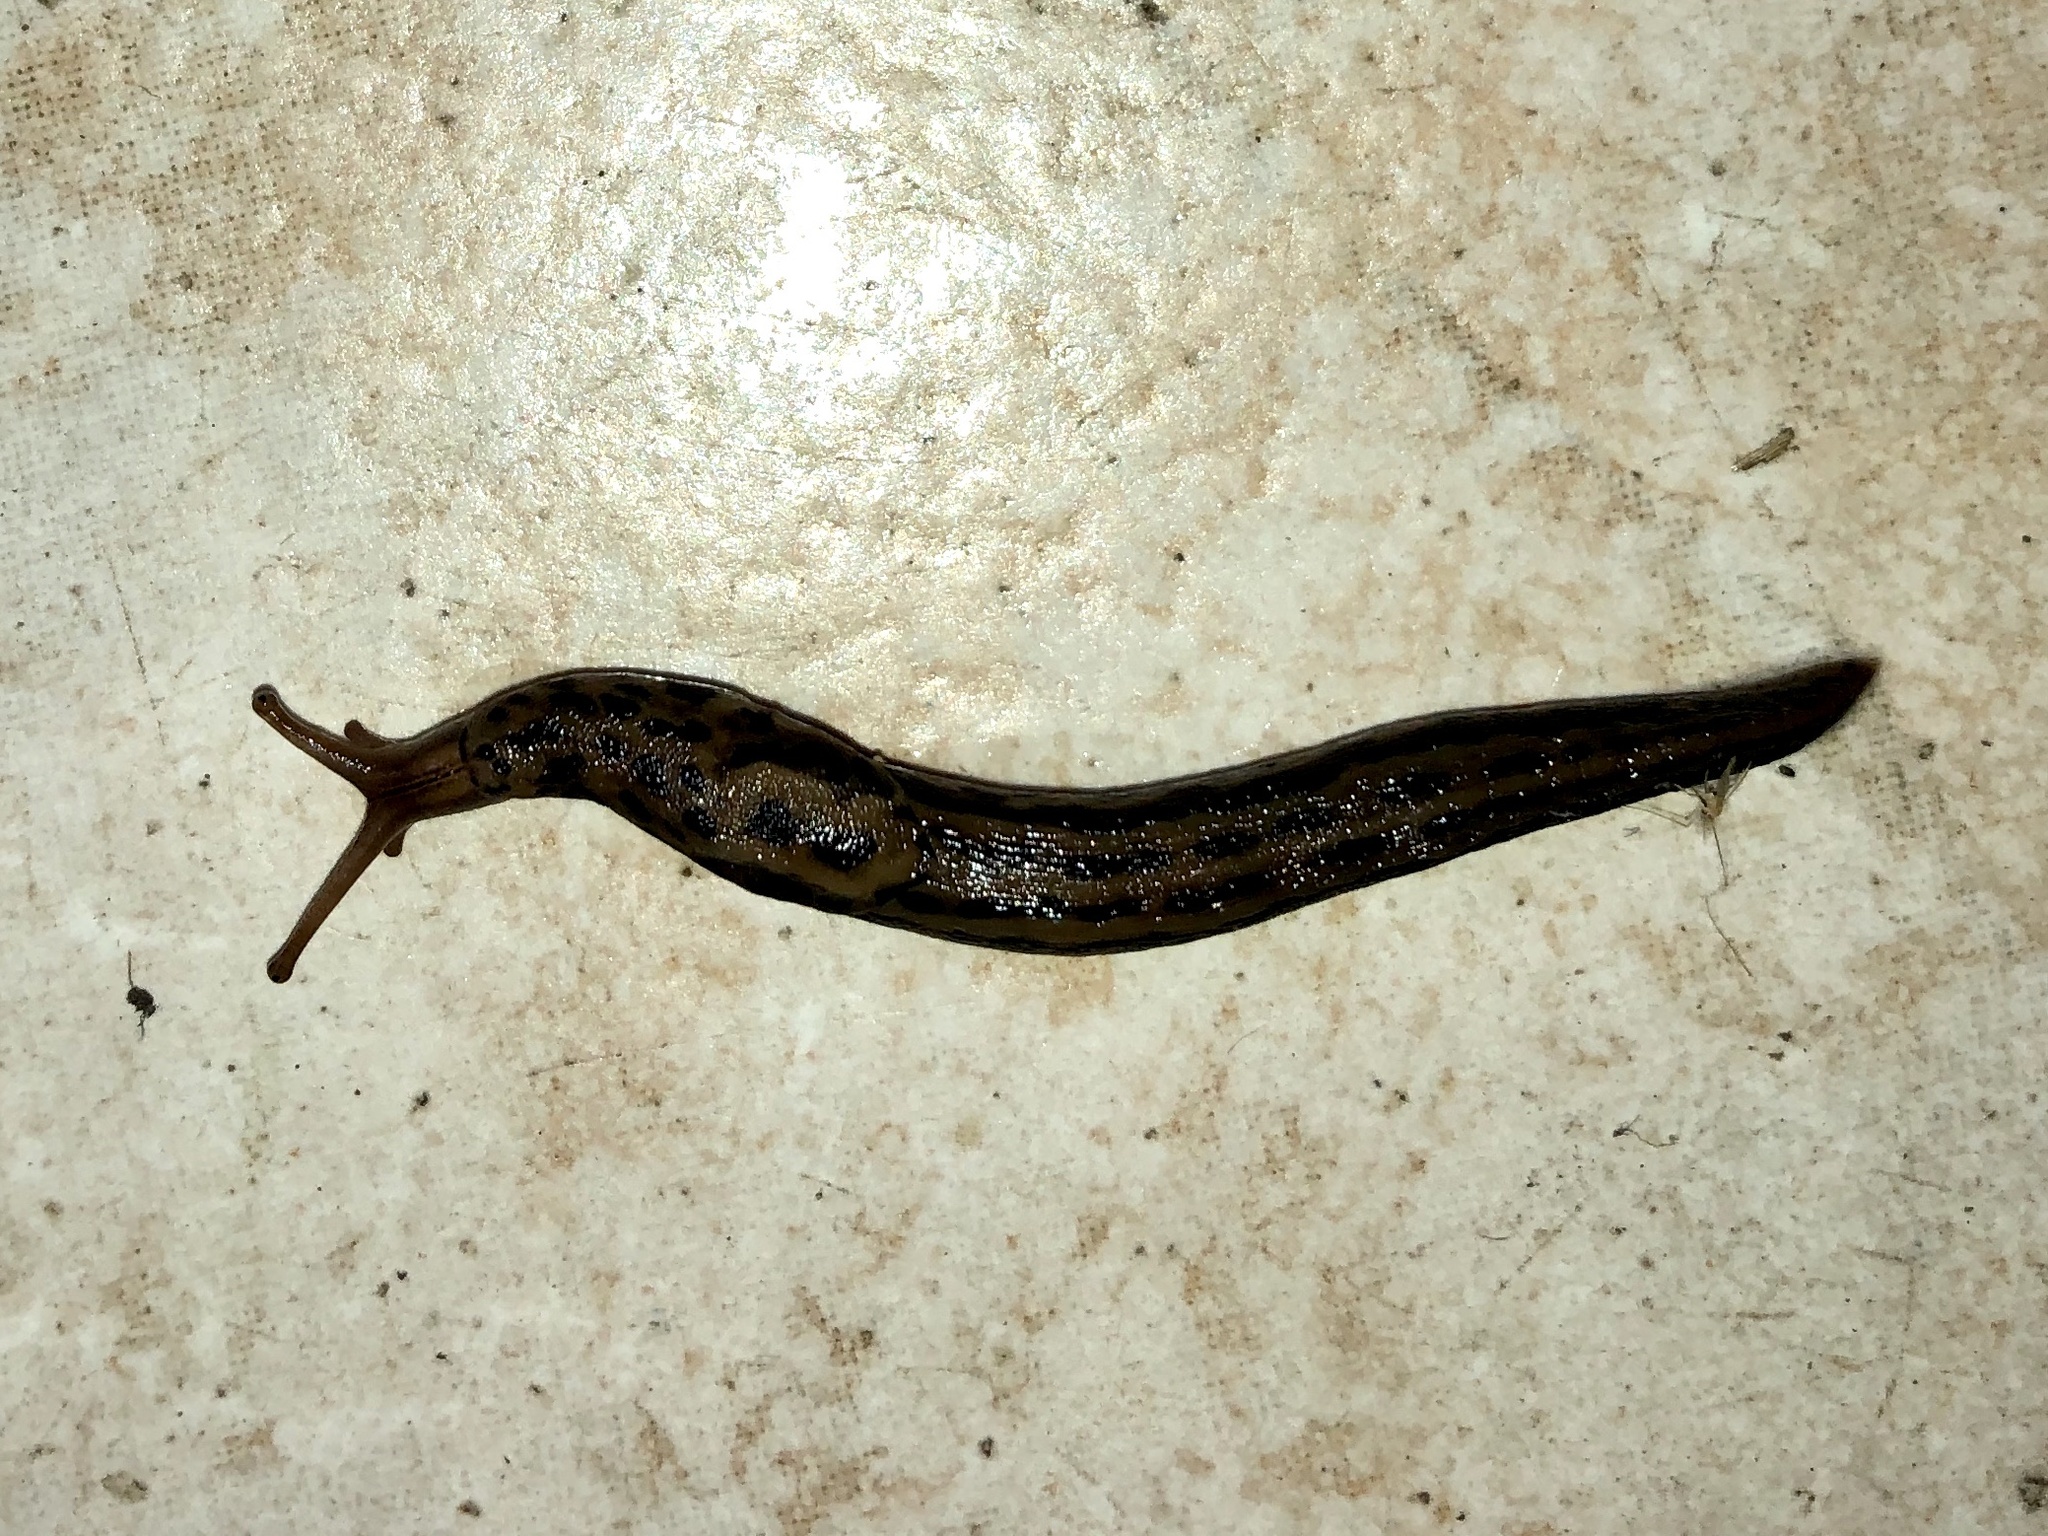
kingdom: Animalia
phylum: Mollusca
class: Gastropoda
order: Stylommatophora
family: Limacidae
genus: Limax
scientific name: Limax maximus
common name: Great grey slug
